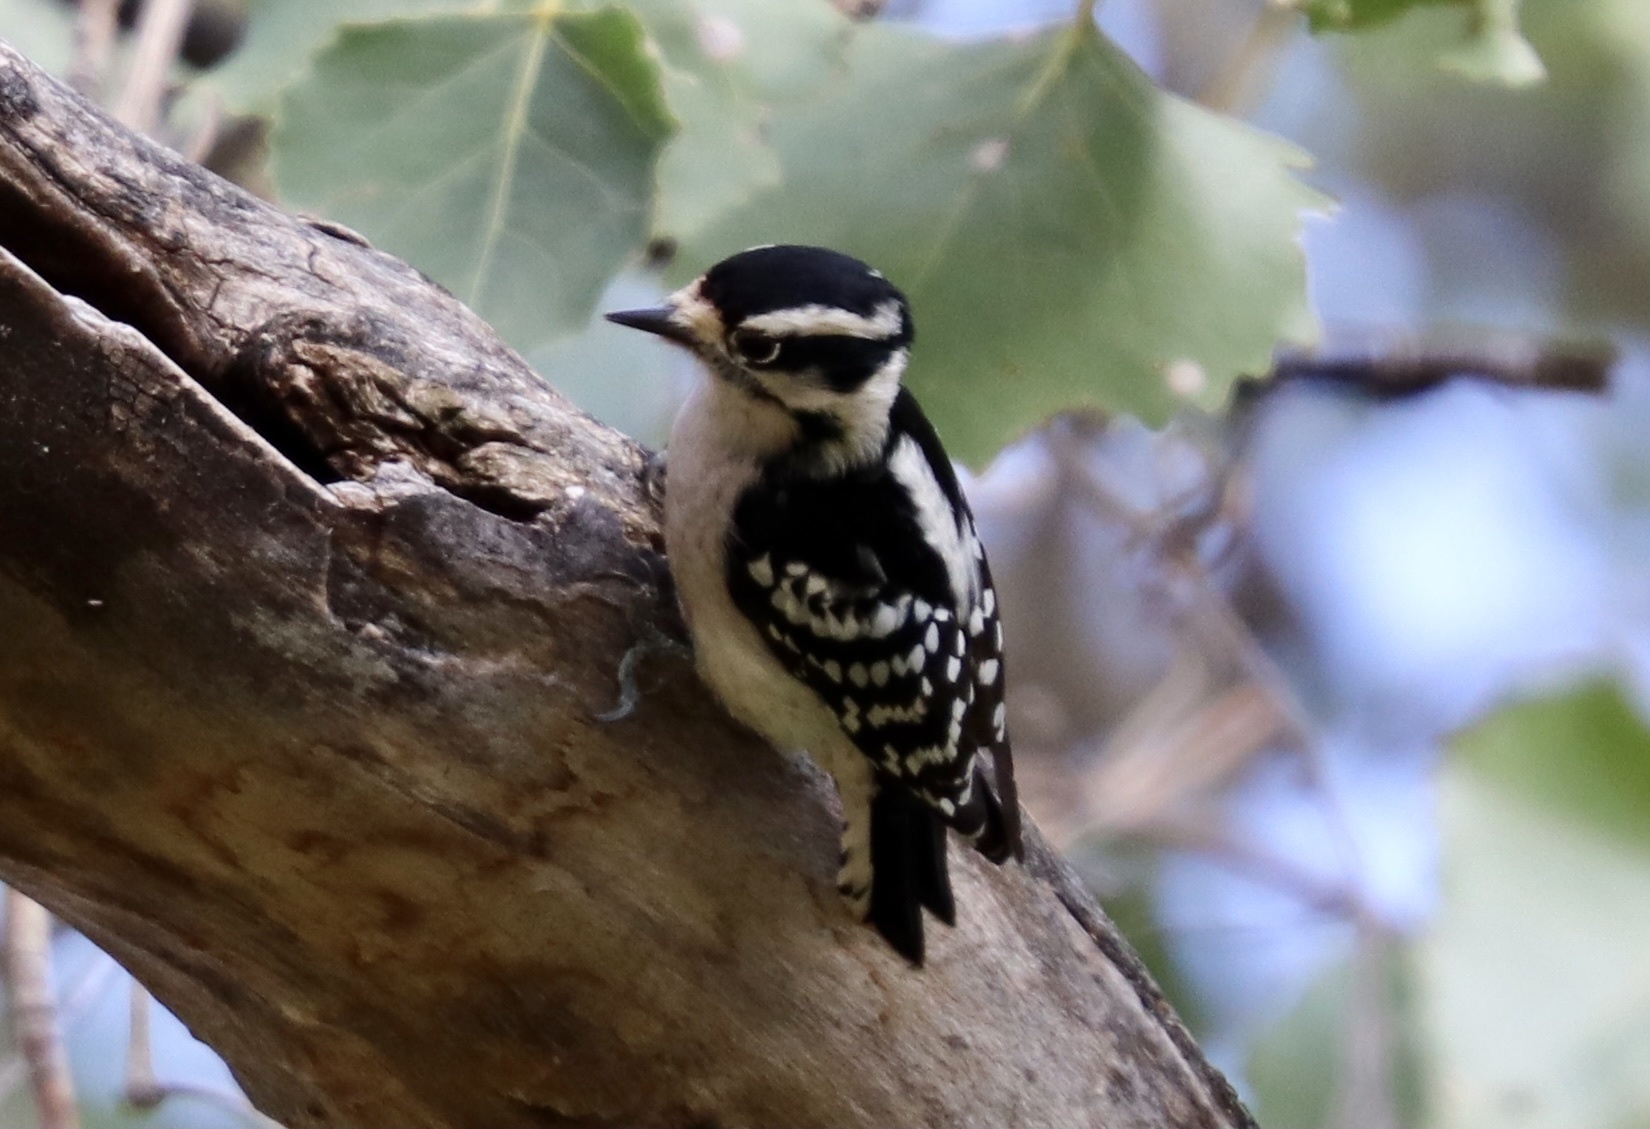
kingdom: Animalia
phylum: Chordata
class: Aves
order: Piciformes
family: Picidae
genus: Dryobates
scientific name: Dryobates pubescens
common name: Downy woodpecker
